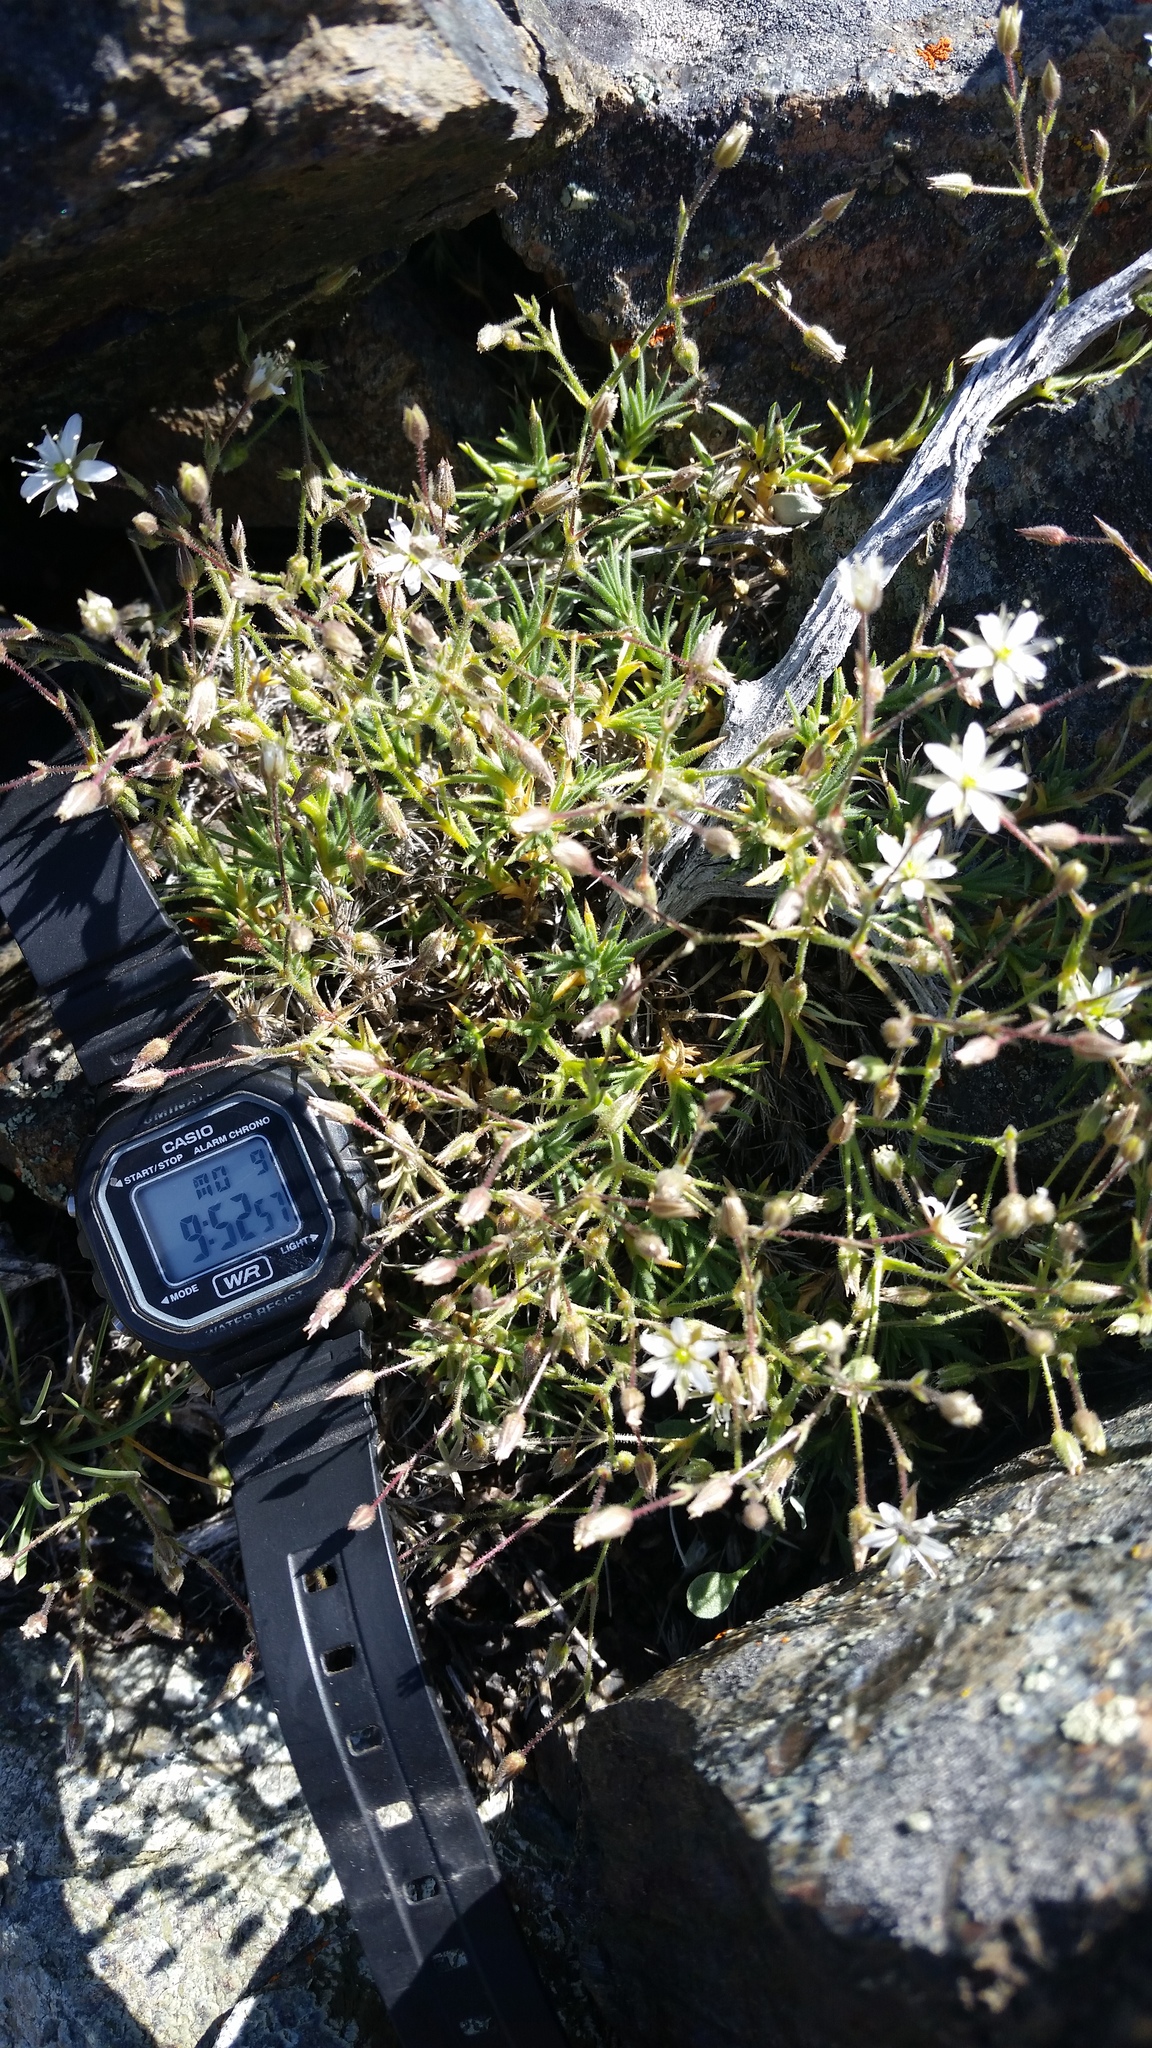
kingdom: Plantae
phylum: Tracheophyta
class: Magnoliopsida
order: Caryophyllales
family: Caryophyllaceae
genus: Sabulina
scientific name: Sabulina nuttallii
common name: Nuttall's stitchwort
